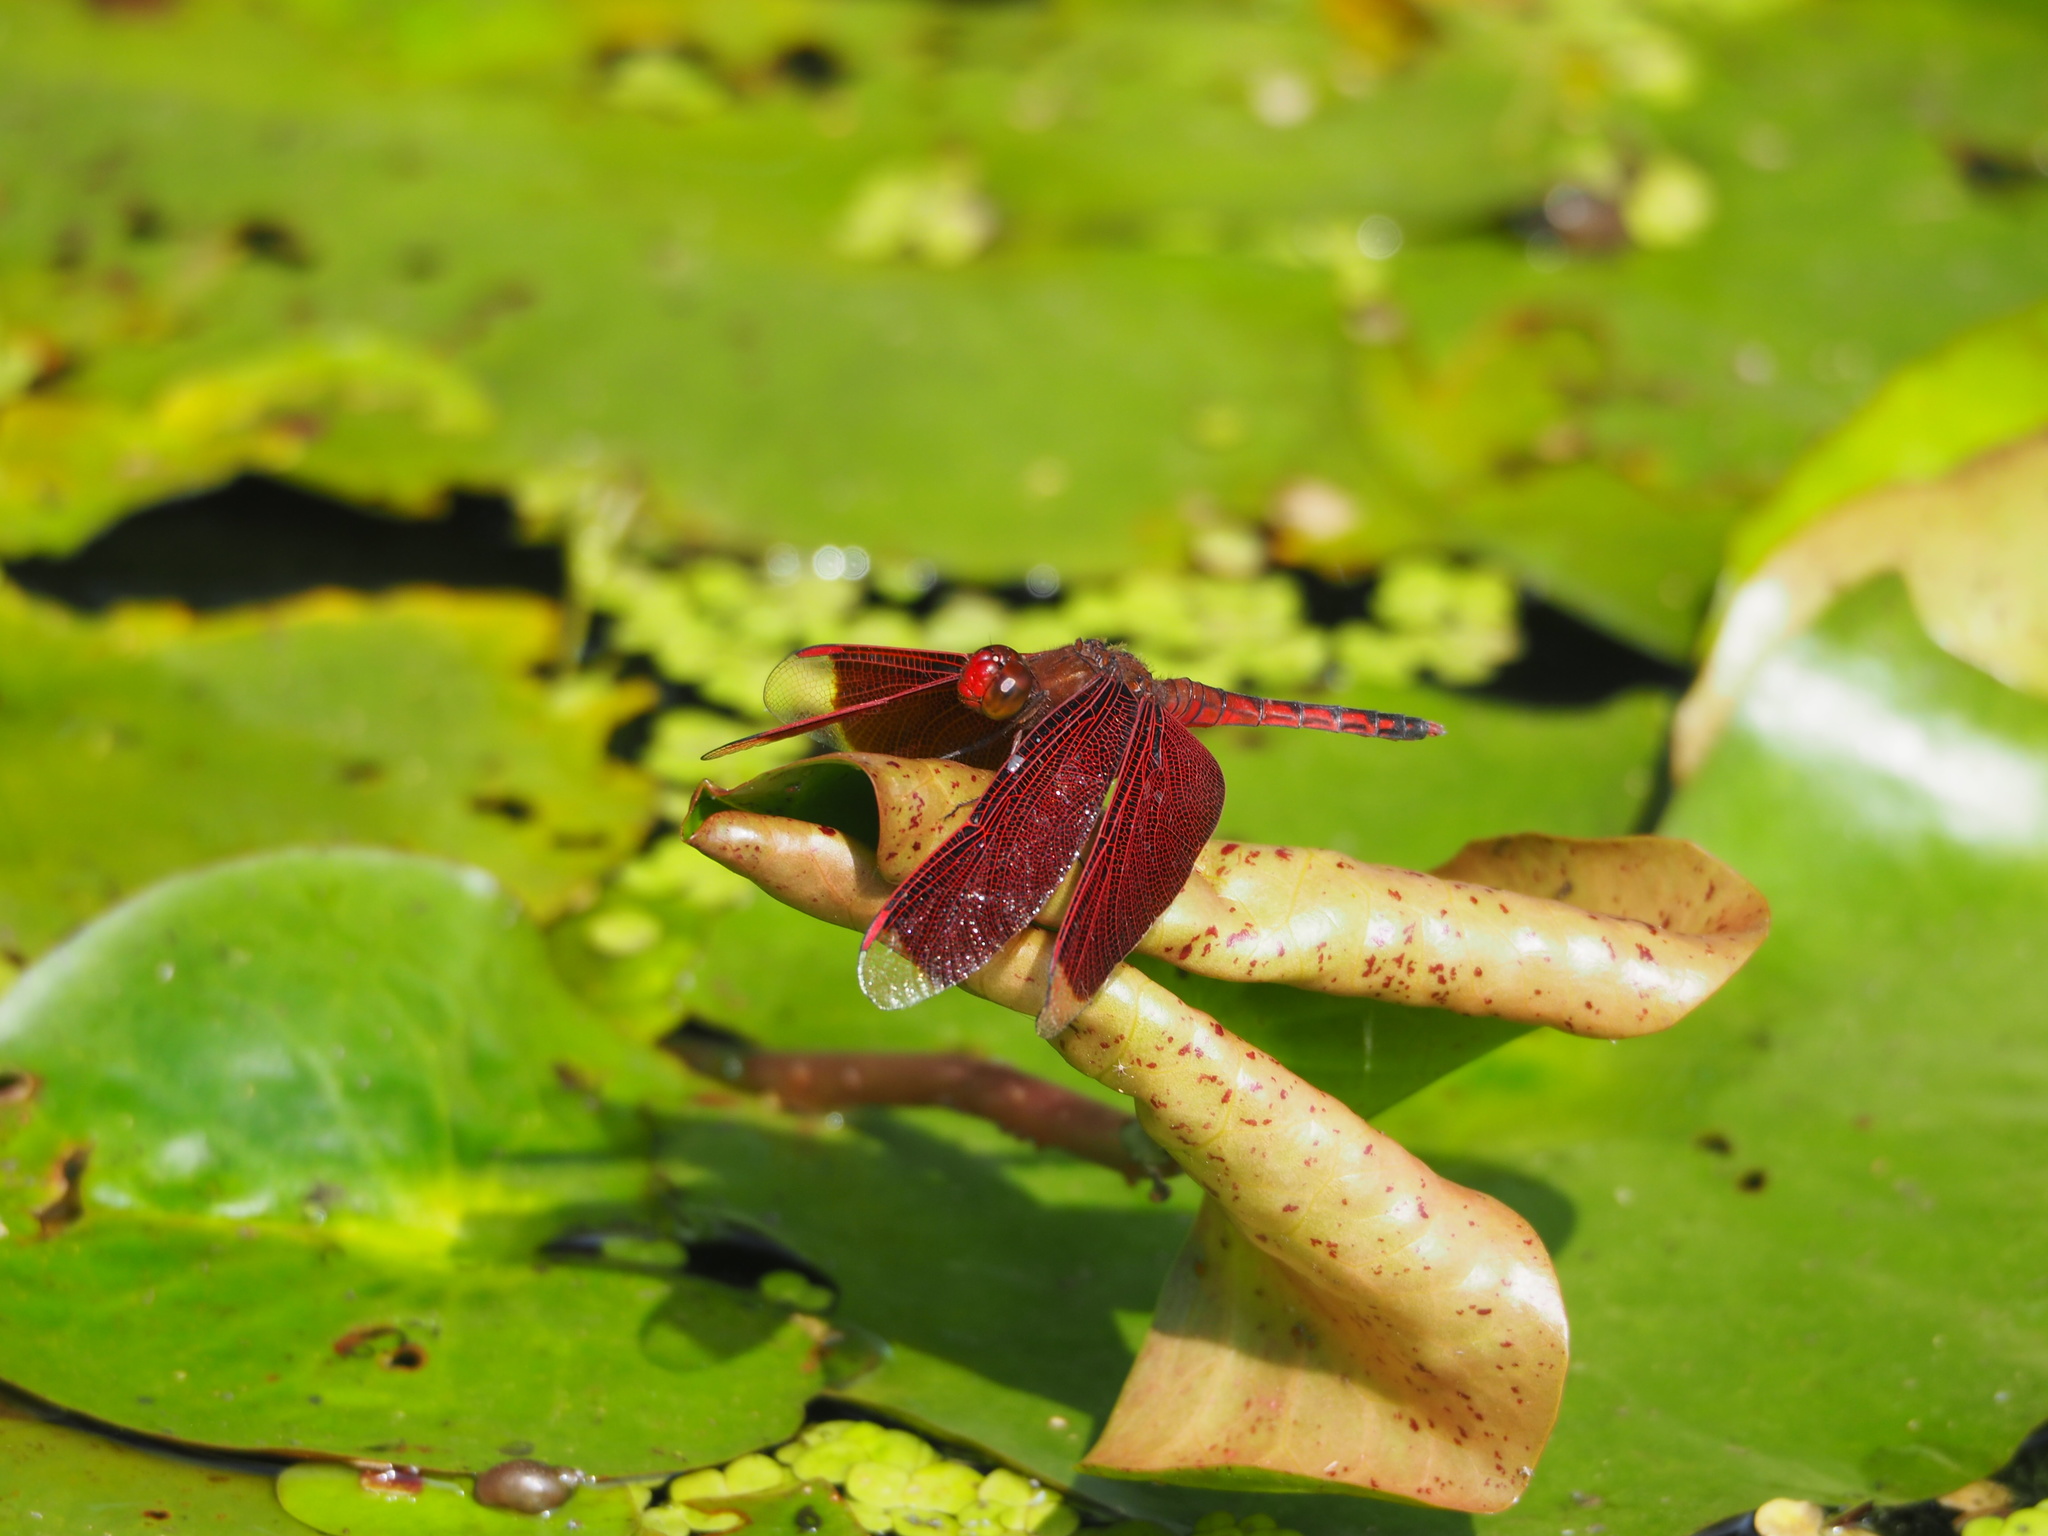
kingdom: Animalia
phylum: Arthropoda
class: Insecta
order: Odonata
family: Libellulidae
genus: Neurothemis
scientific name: Neurothemis taiwanensis
